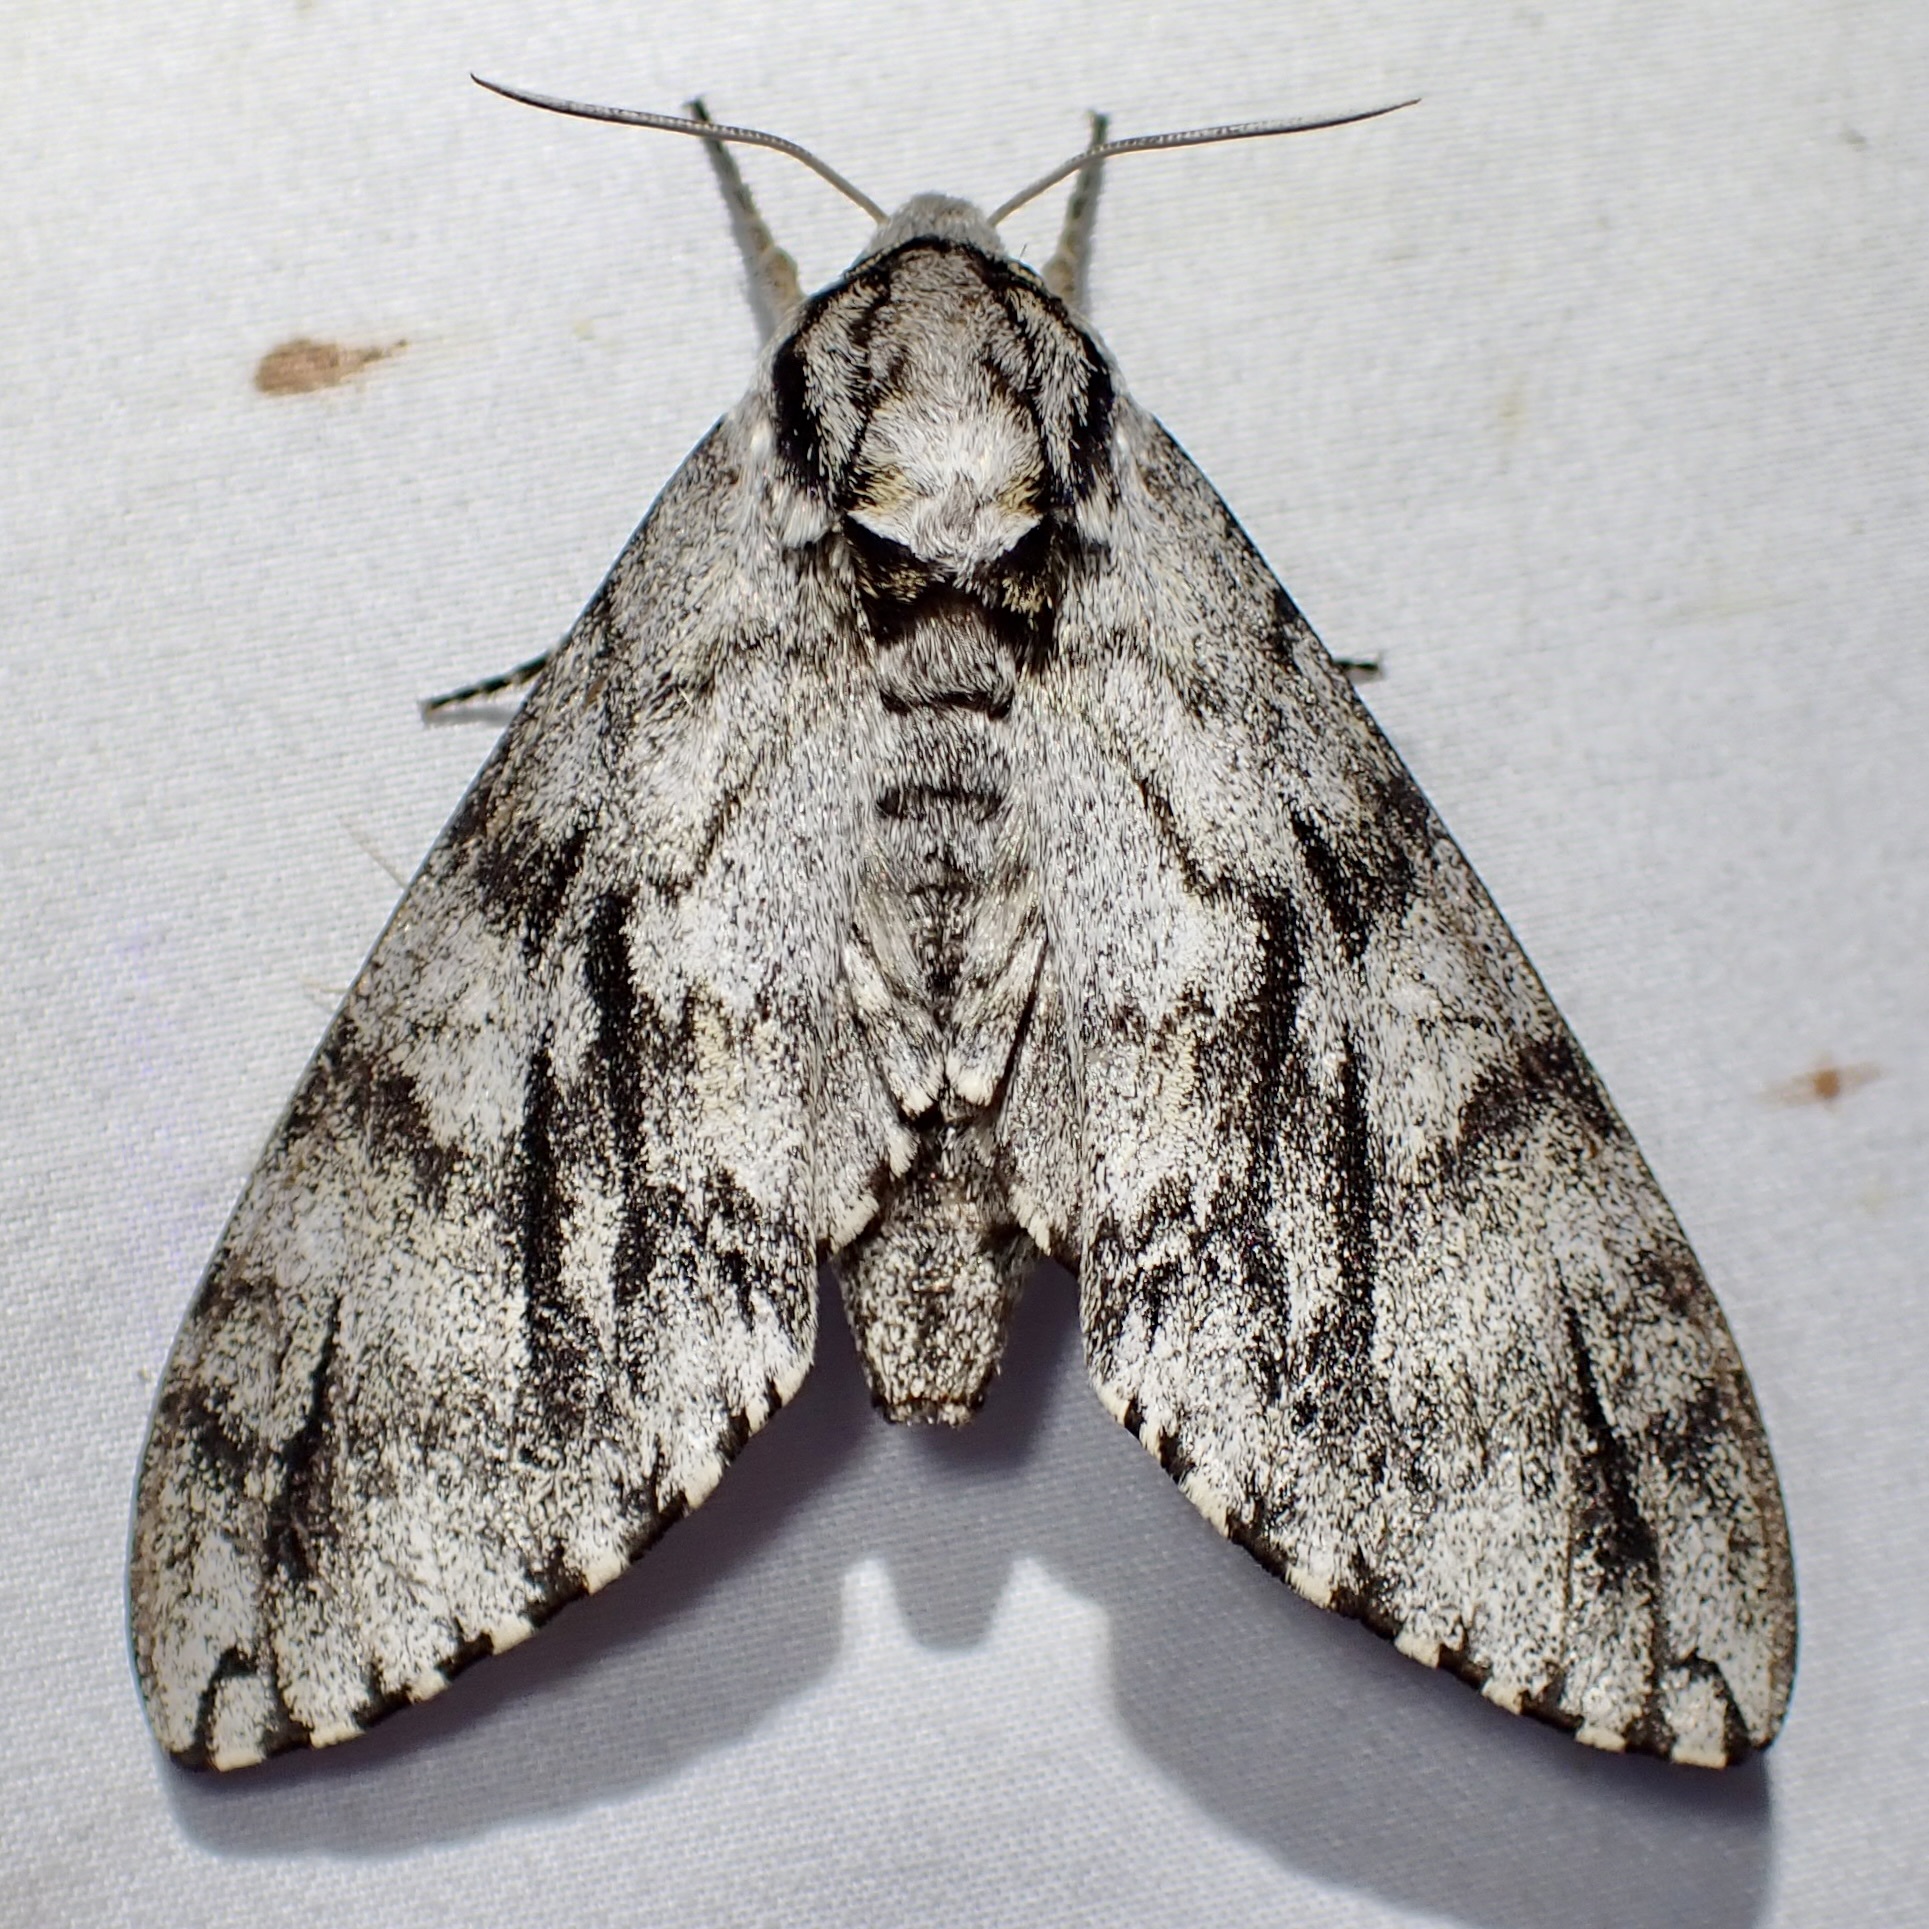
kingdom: Animalia
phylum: Arthropoda
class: Insecta
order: Lepidoptera
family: Sphingidae
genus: Ceratomia
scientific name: Ceratomia sonorensis
